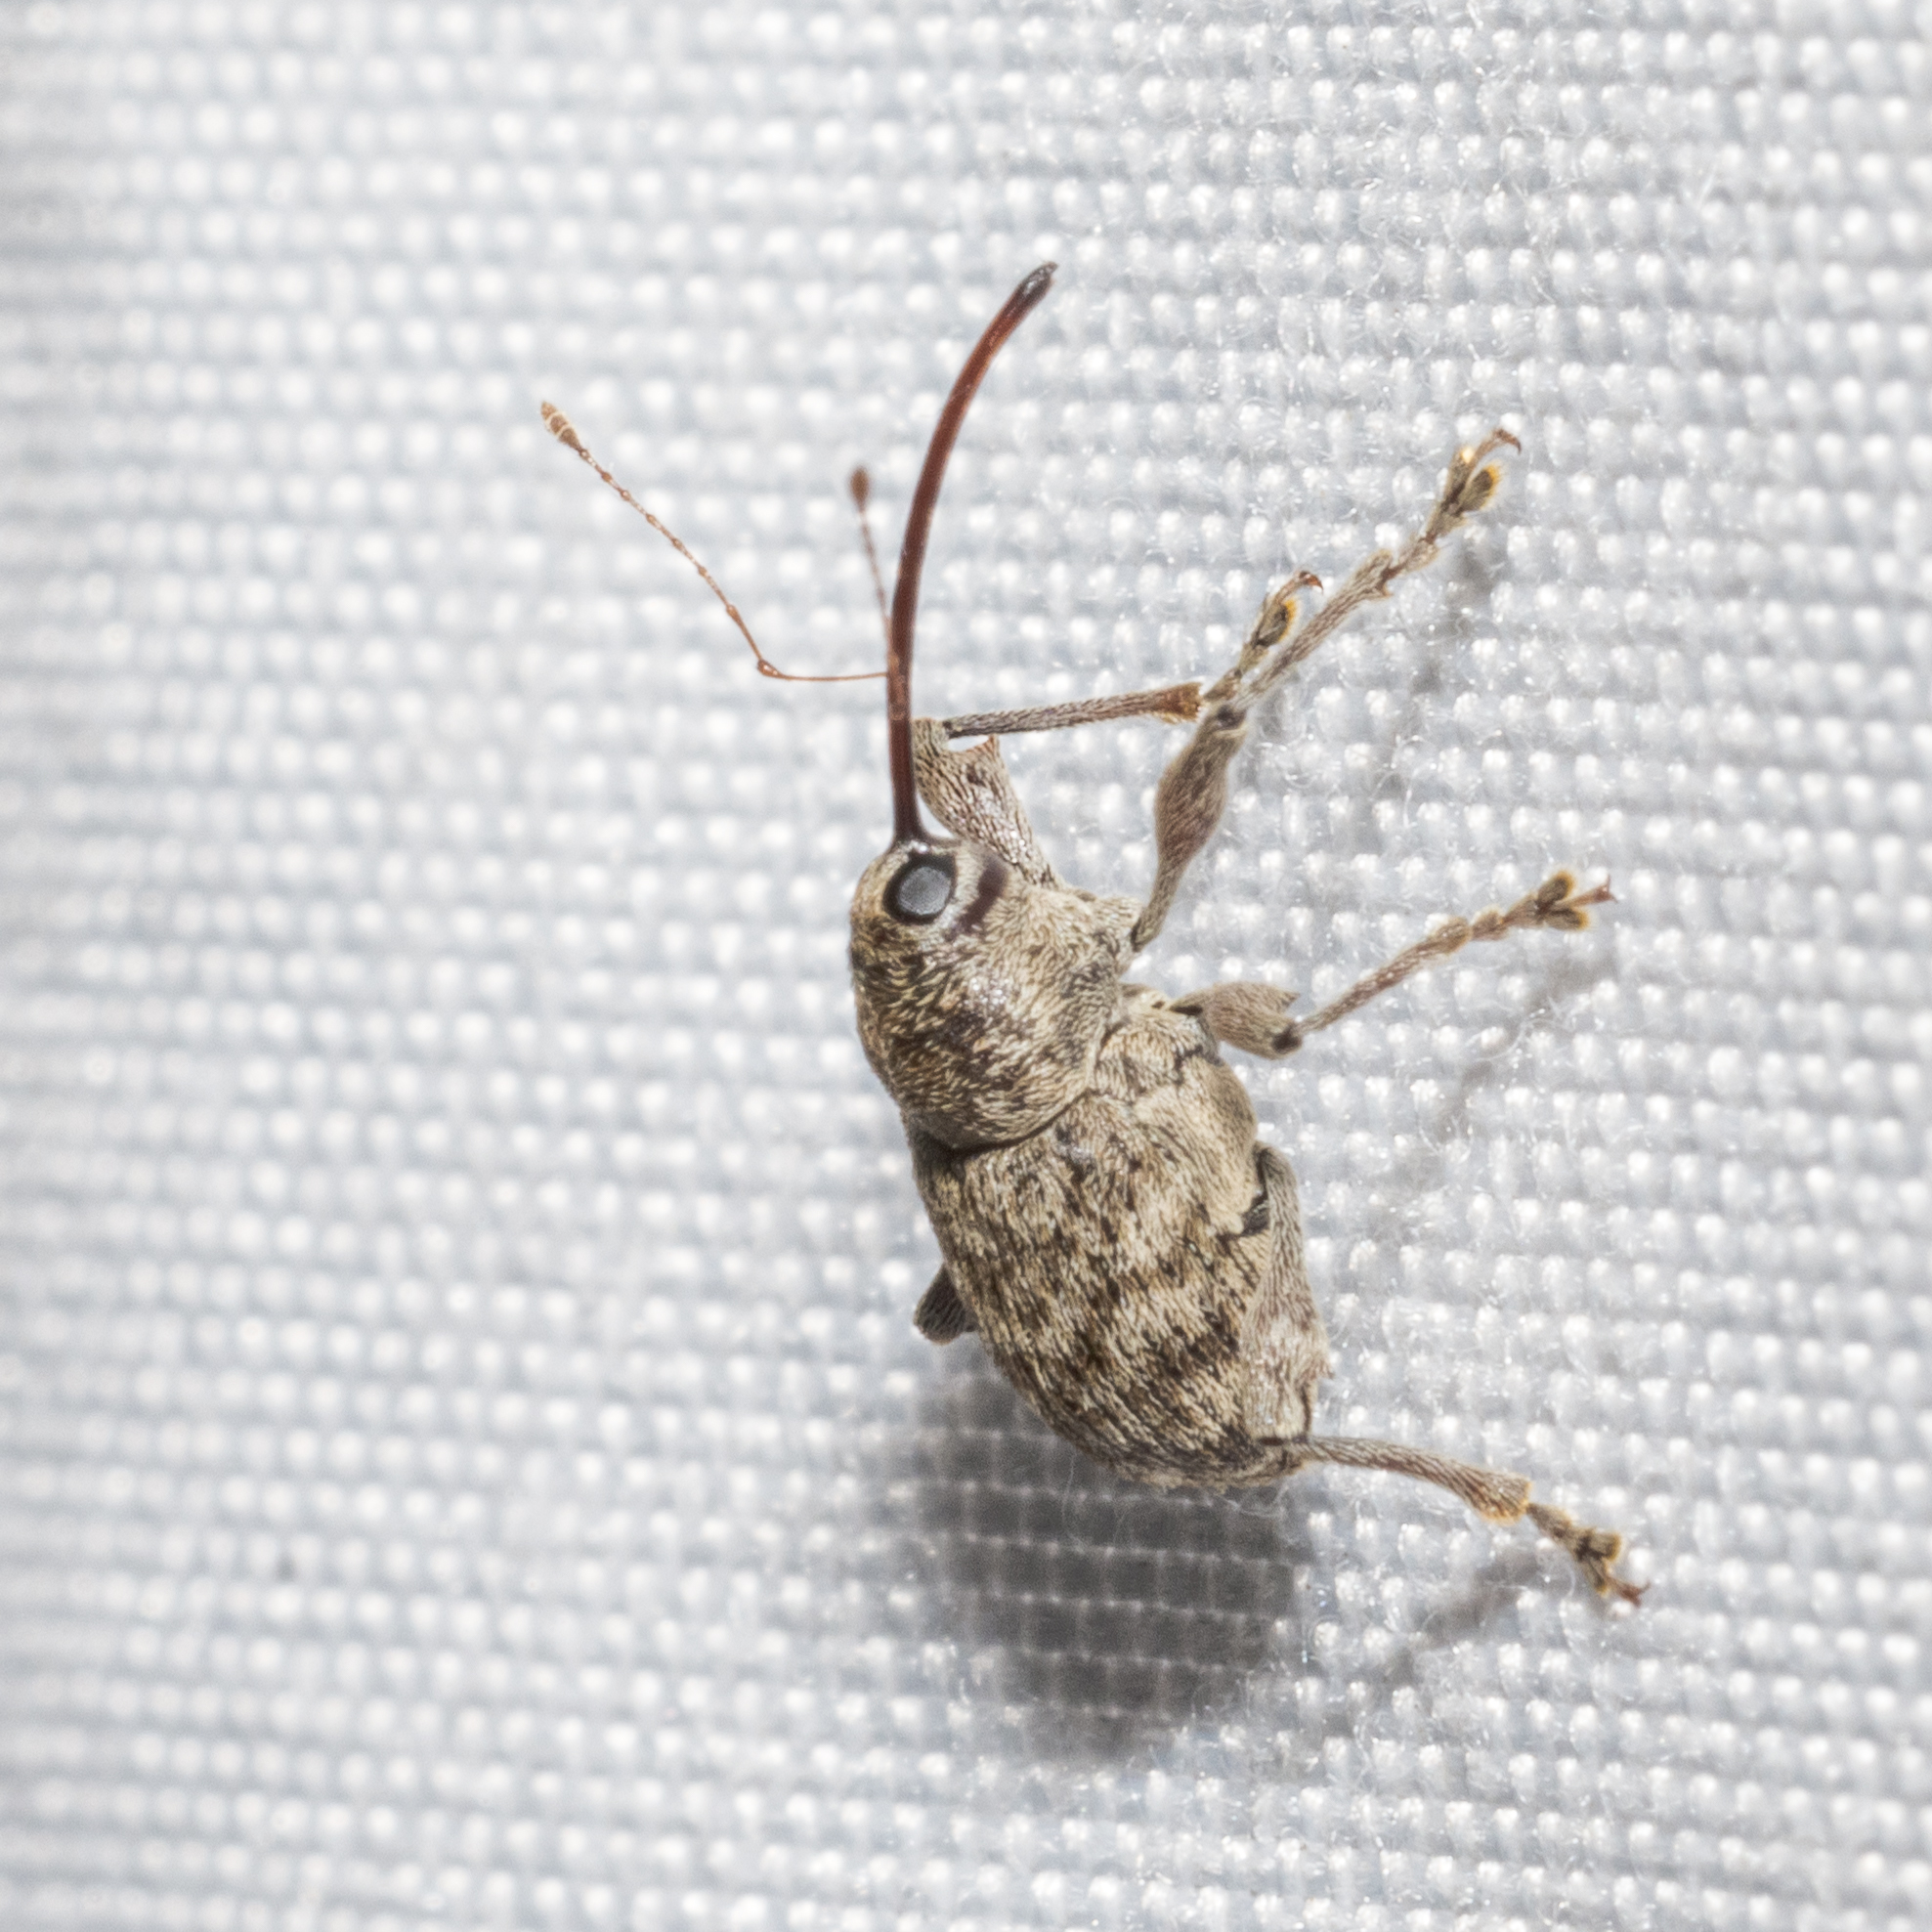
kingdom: Animalia
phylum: Arthropoda
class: Insecta
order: Coleoptera
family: Curculionidae
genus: Curculio
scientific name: Curculio
